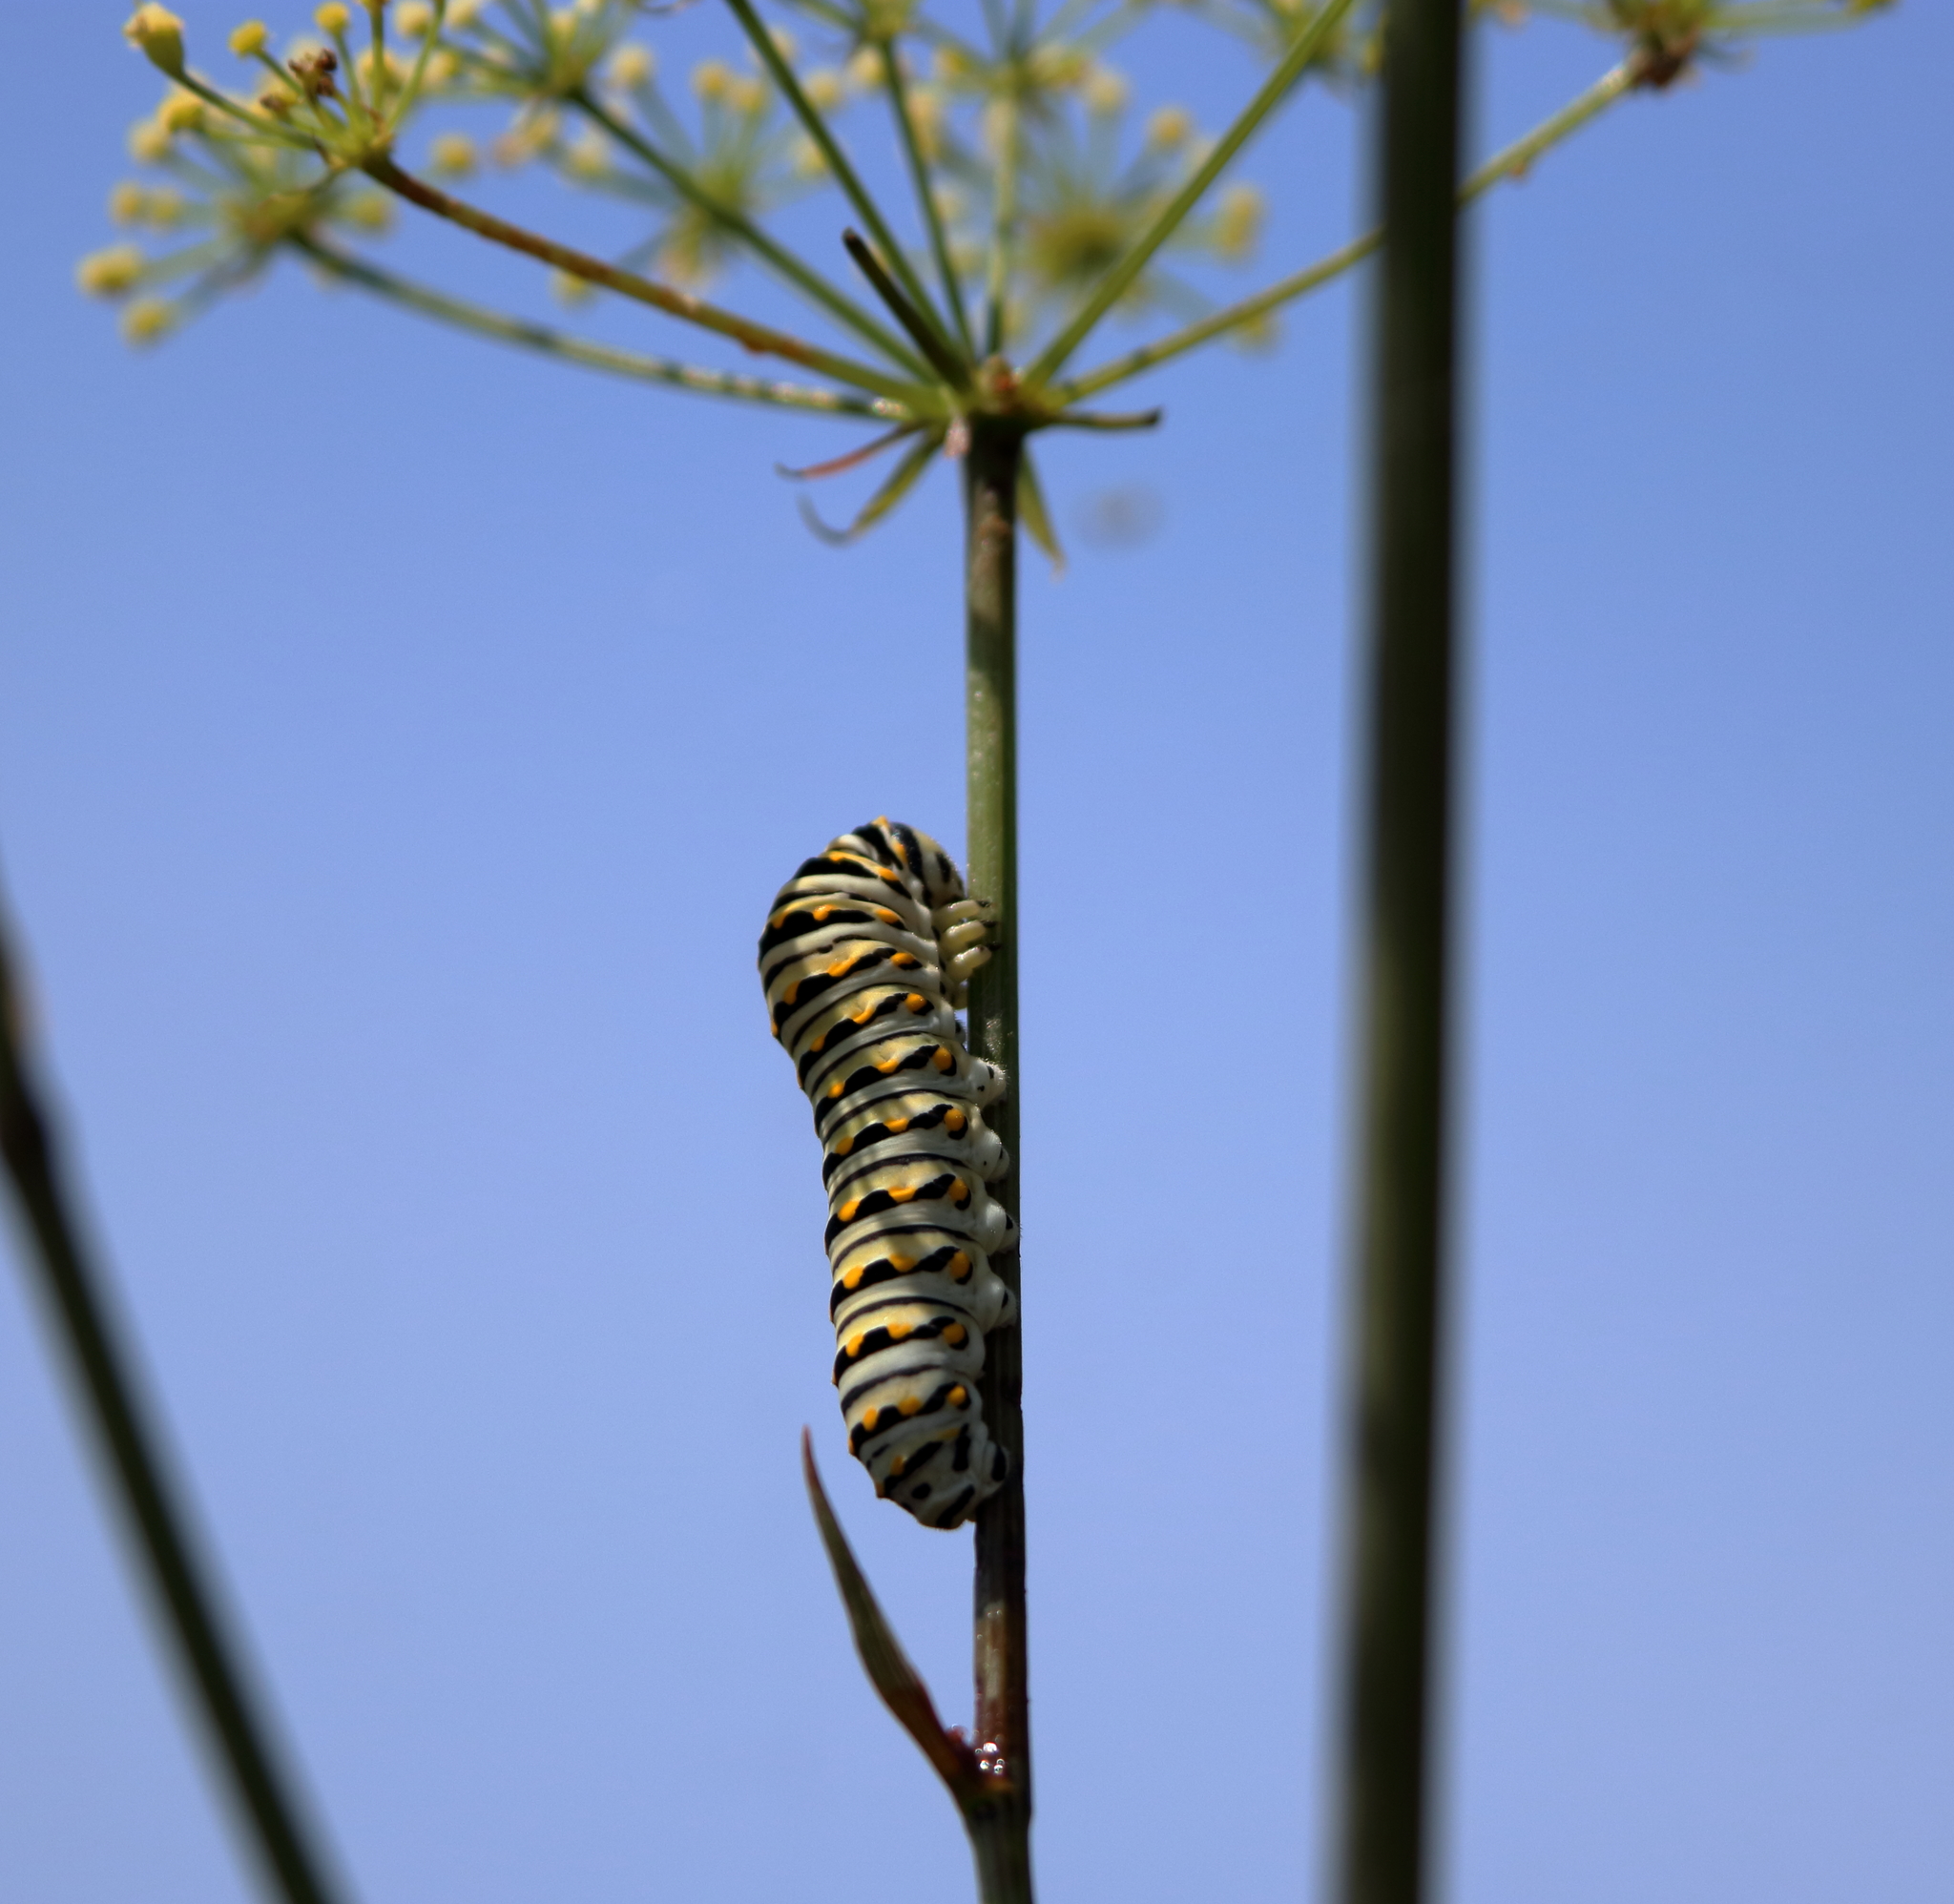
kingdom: Animalia
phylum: Arthropoda
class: Insecta
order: Lepidoptera
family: Papilionidae
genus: Papilio
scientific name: Papilio polyxenes
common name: Black swallowtail
